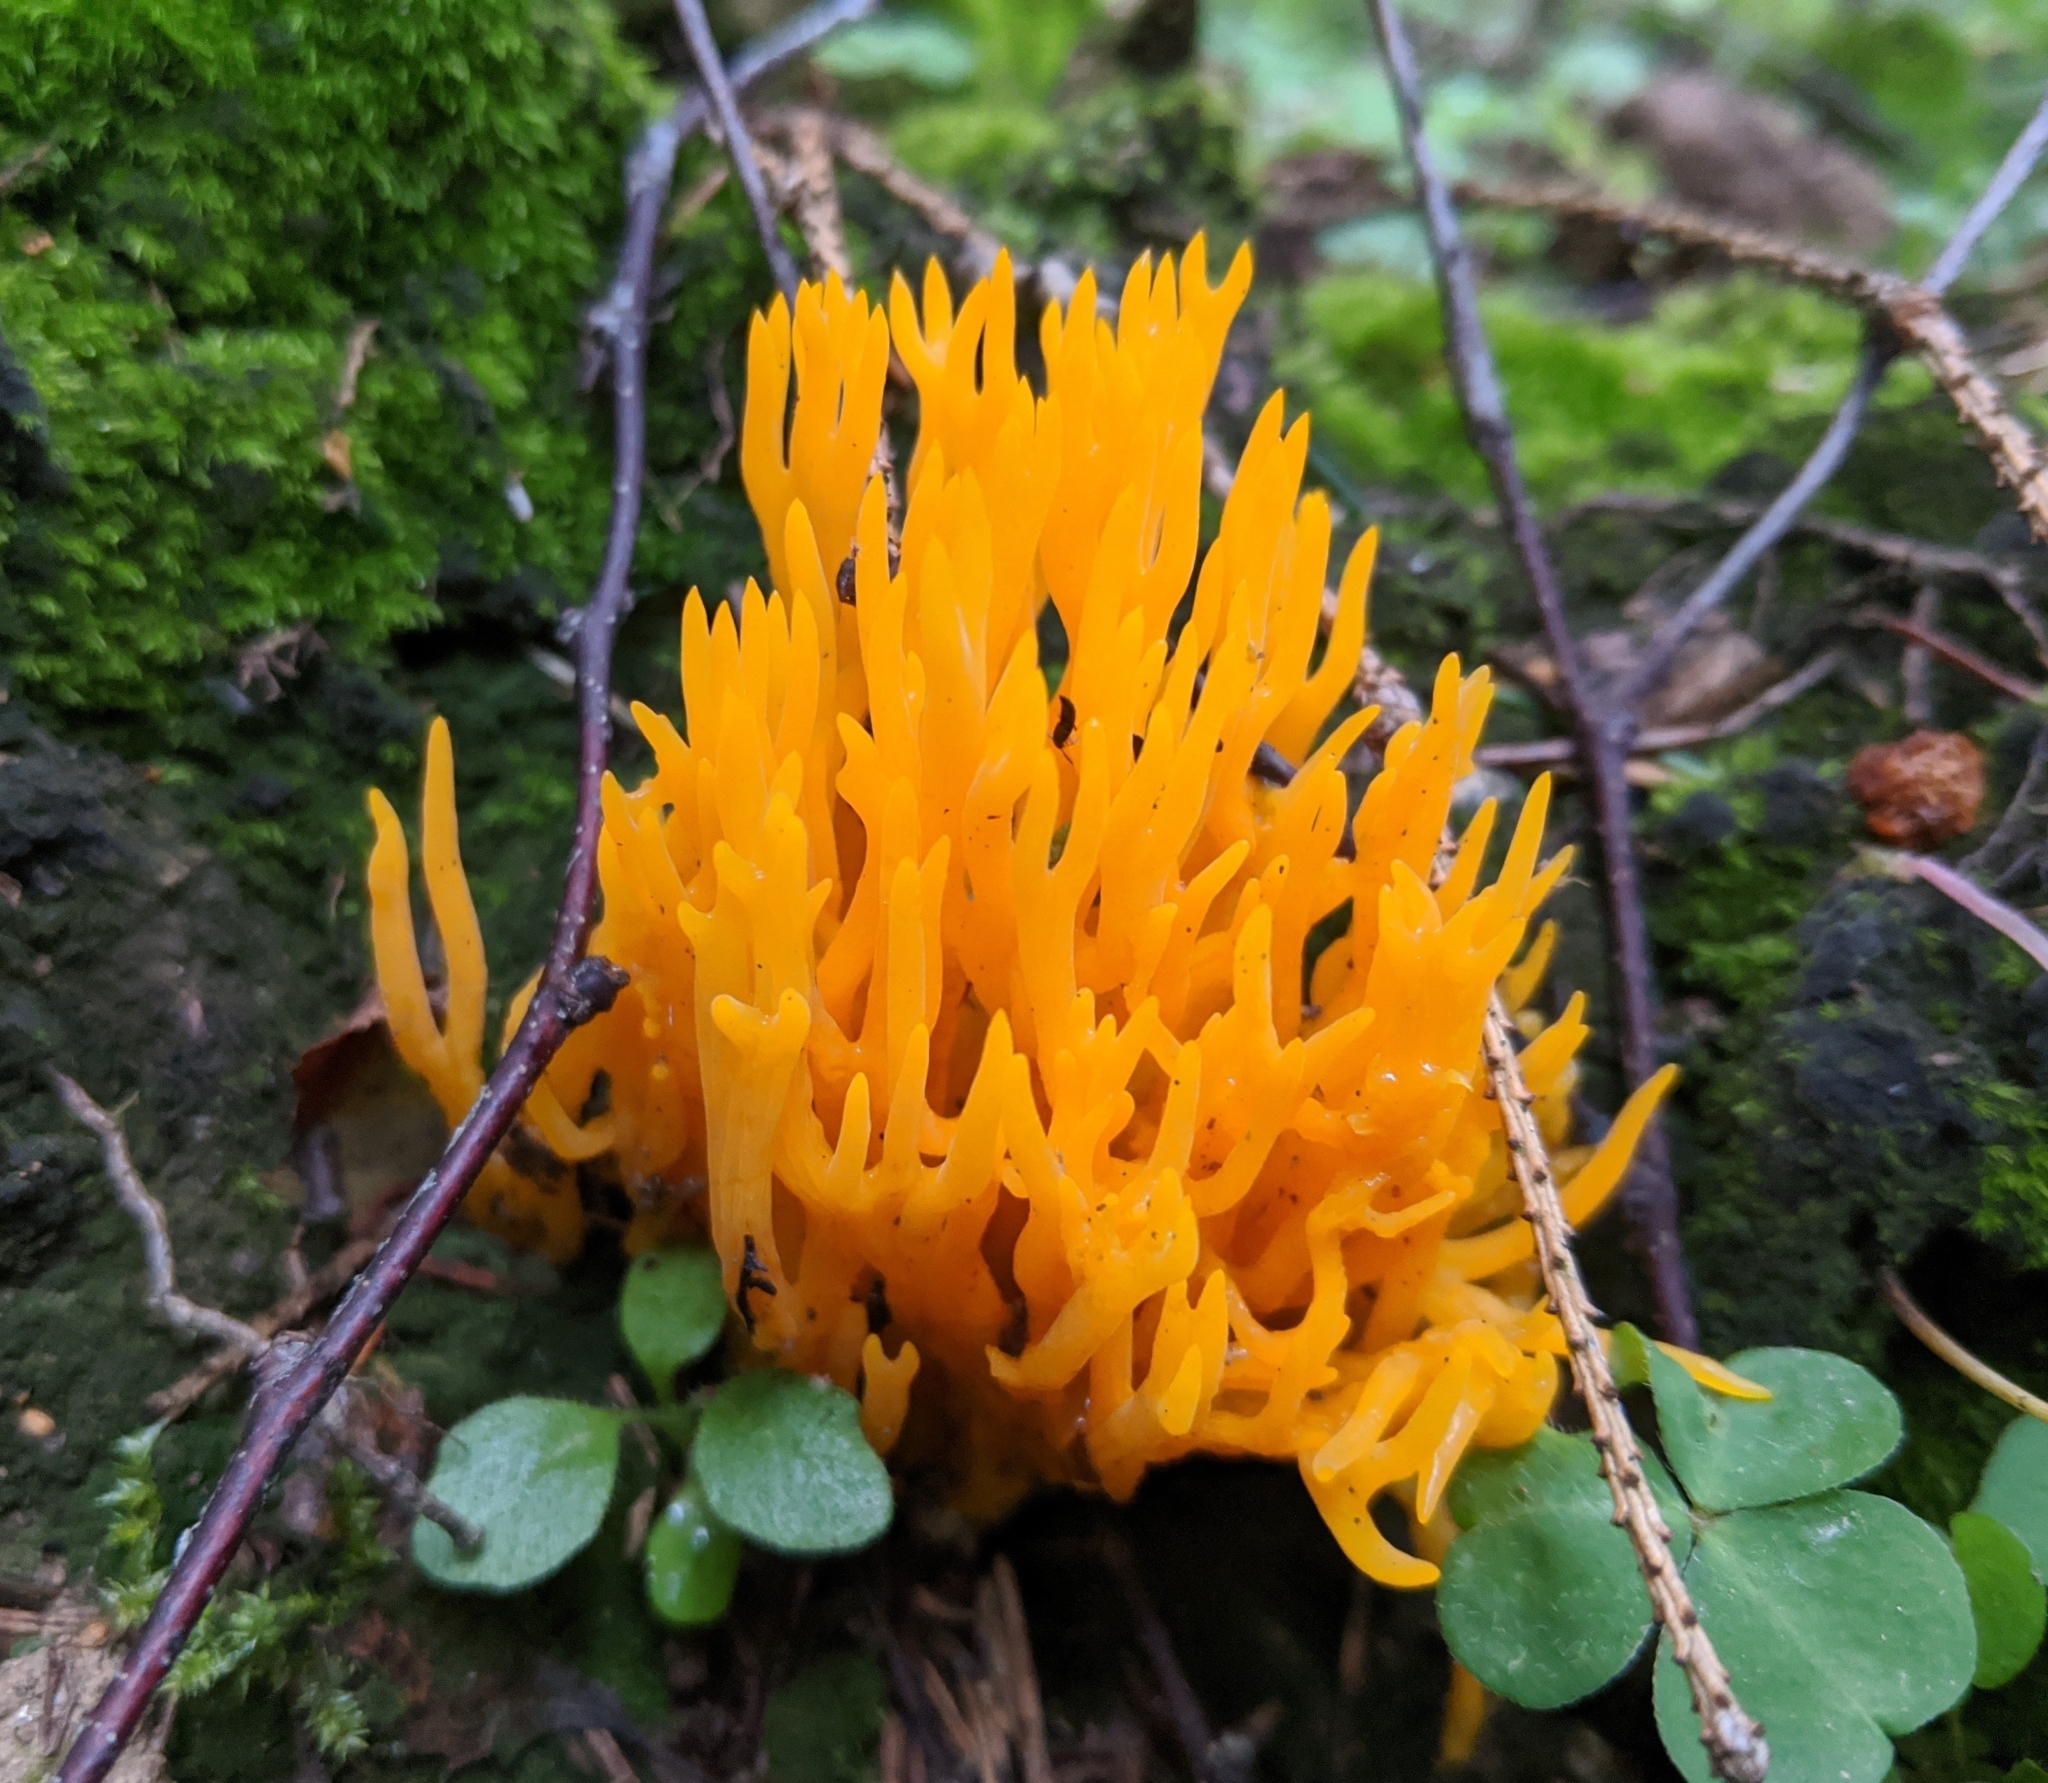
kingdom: Fungi
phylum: Basidiomycota
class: Dacrymycetes
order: Dacrymycetales
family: Dacrymycetaceae
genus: Calocera
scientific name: Calocera viscosa
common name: Yellow stagshorn
